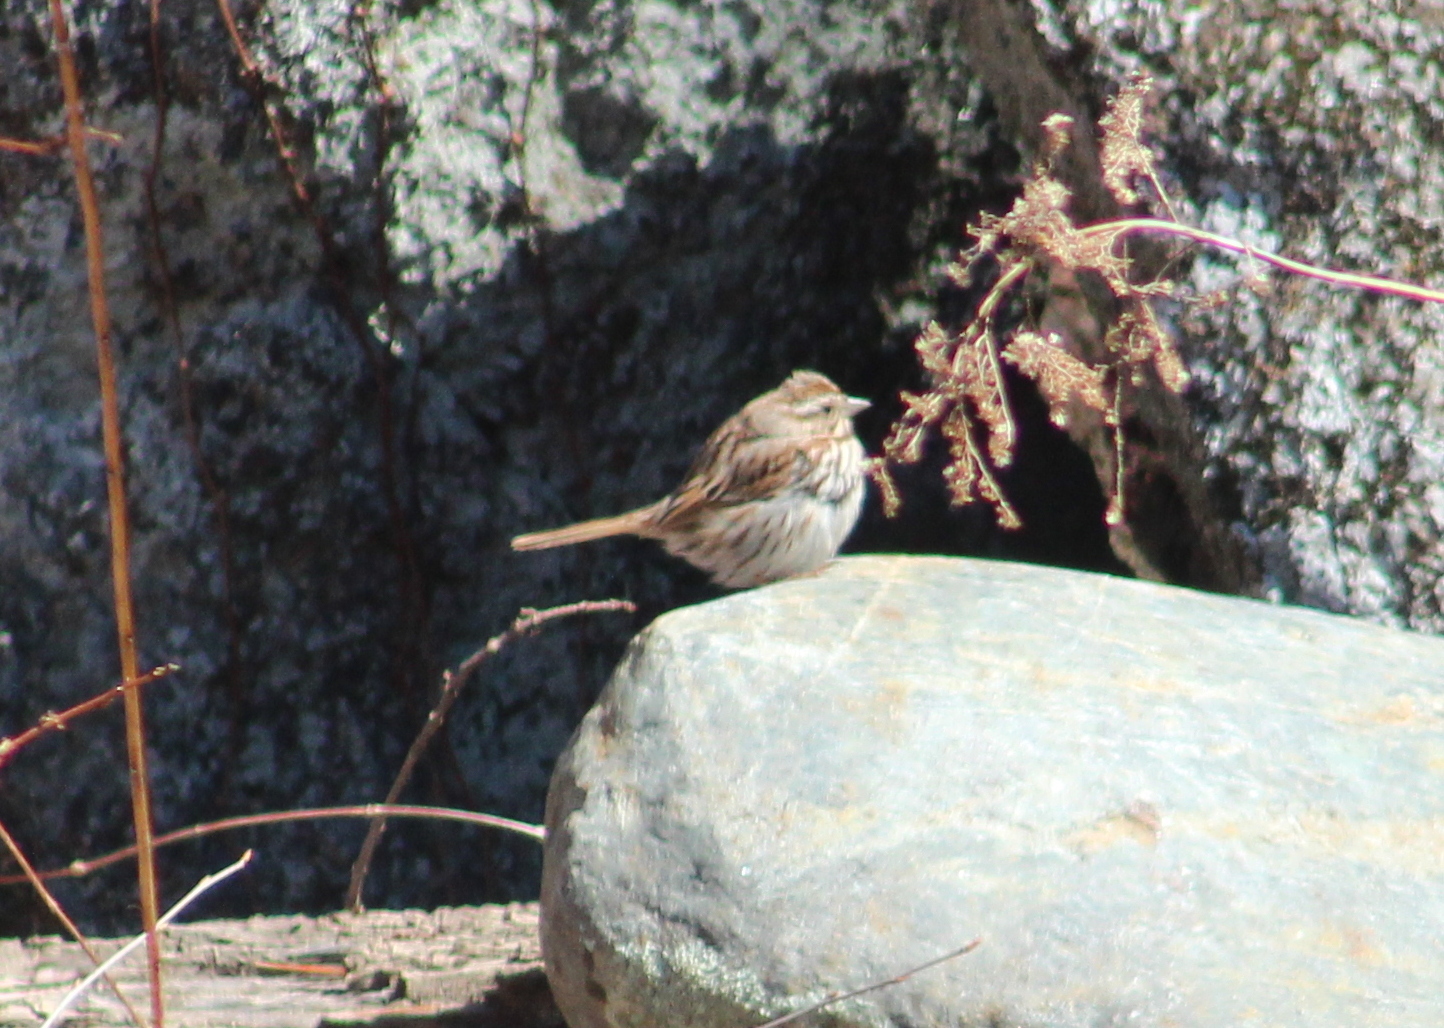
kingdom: Animalia
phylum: Chordata
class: Aves
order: Passeriformes
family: Passerellidae
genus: Melospiza
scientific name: Melospiza melodia
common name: Song sparrow
